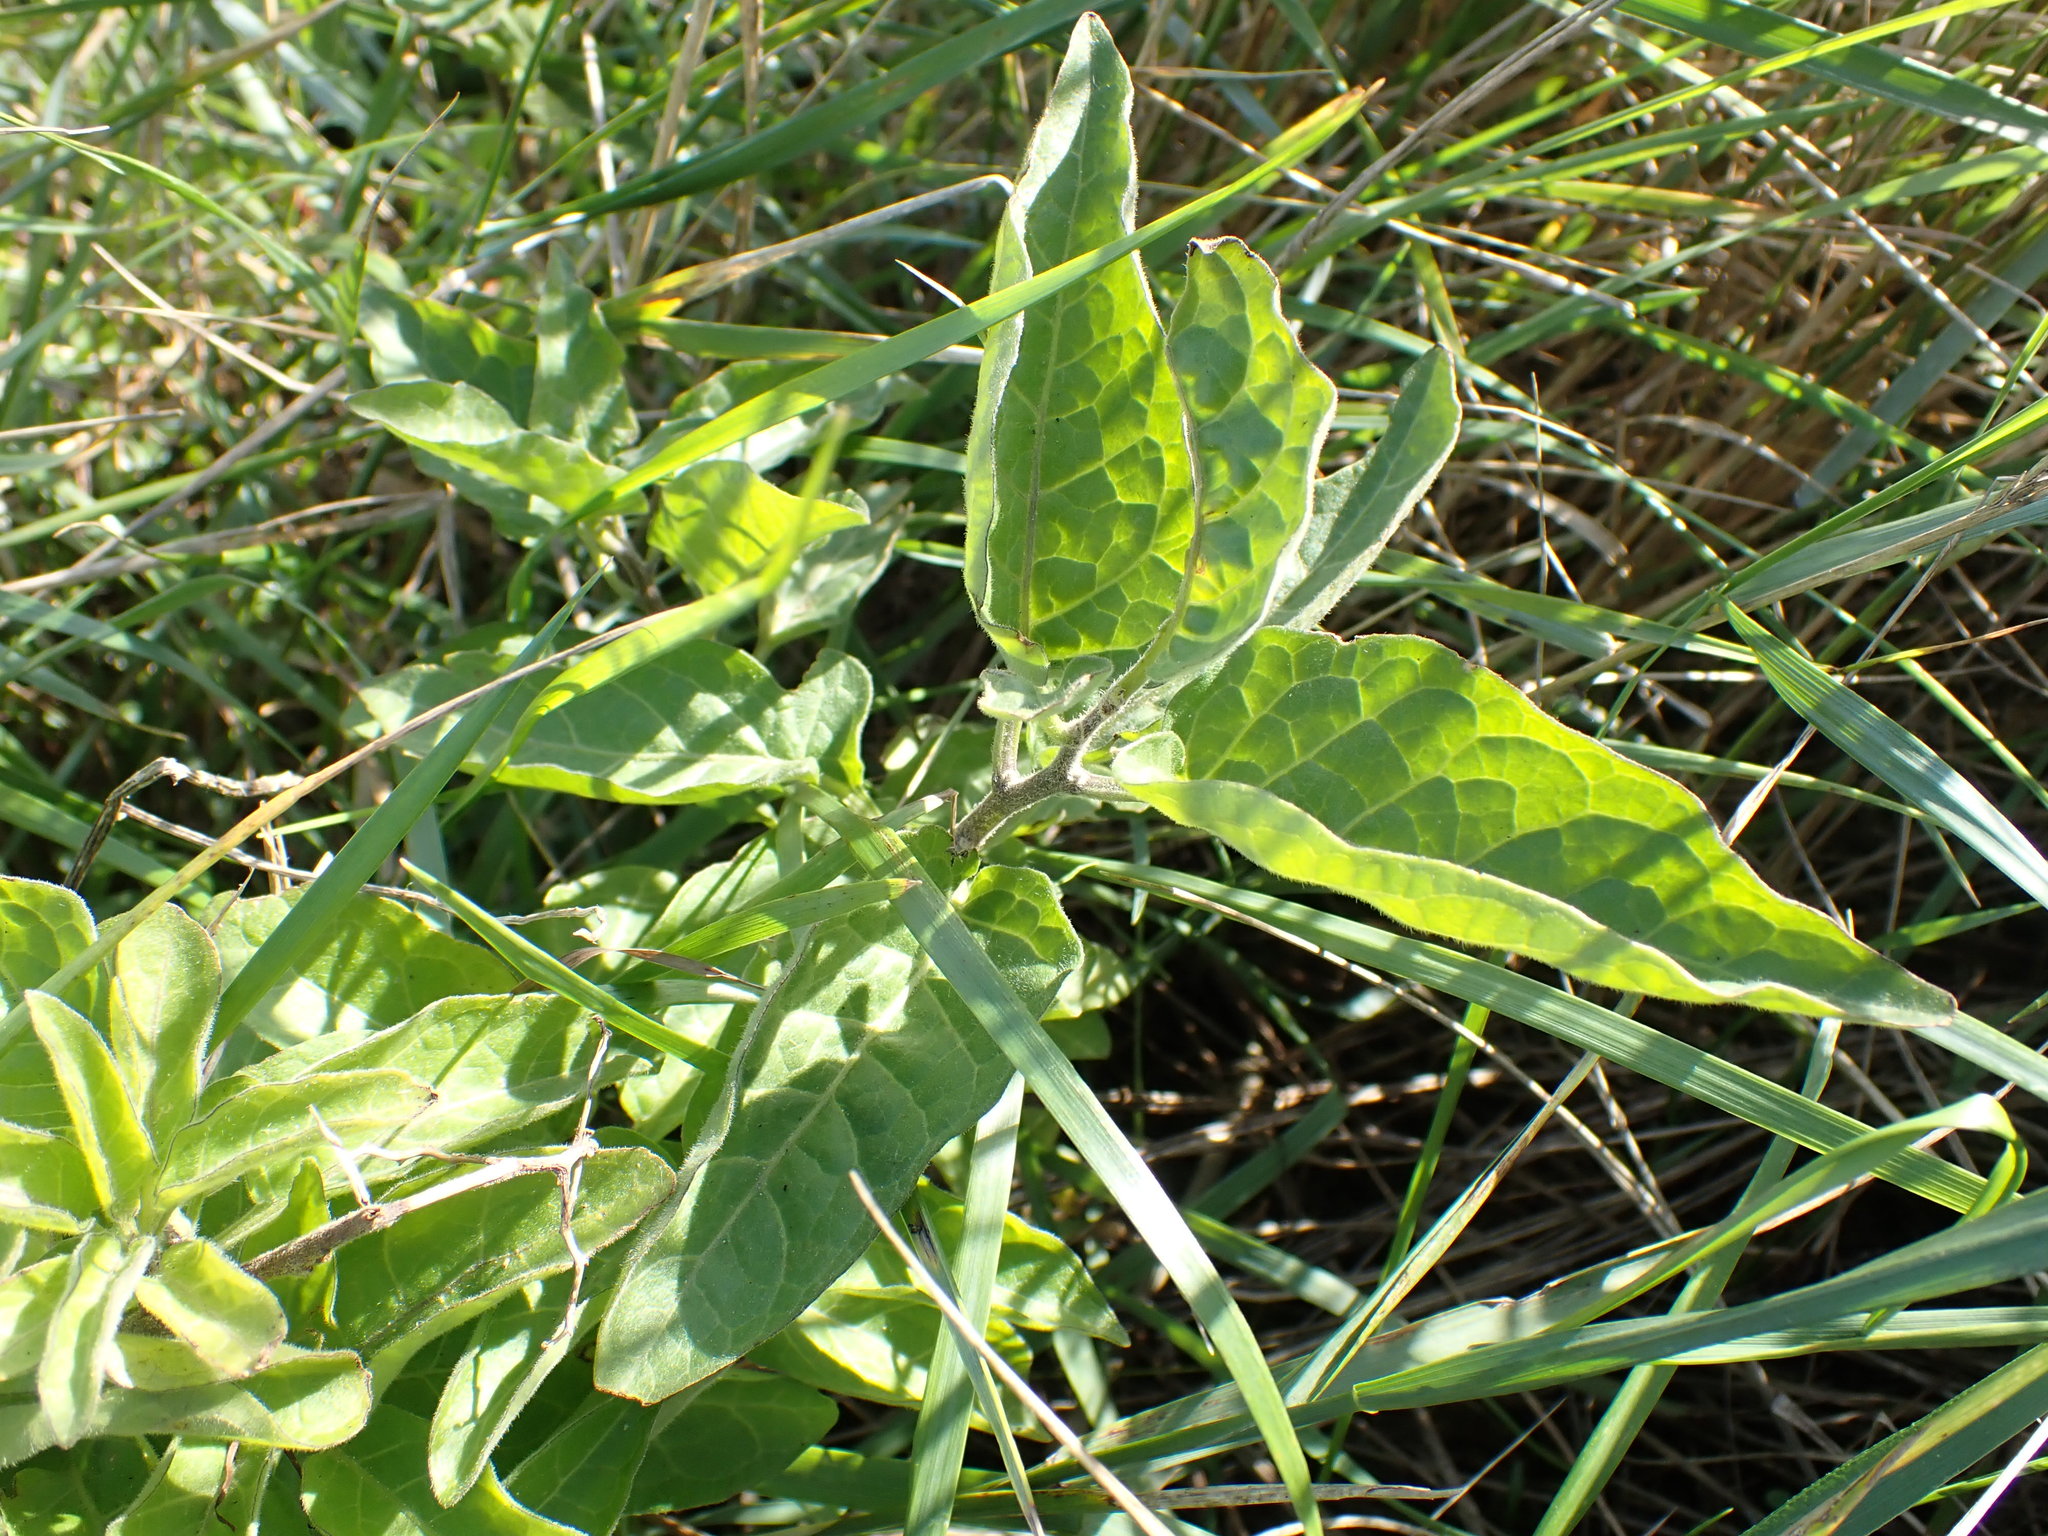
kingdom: Plantae
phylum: Tracheophyta
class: Magnoliopsida
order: Solanales
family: Solanaceae
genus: Solanum
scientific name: Solanum dulcamara
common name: Climbing nightshade
